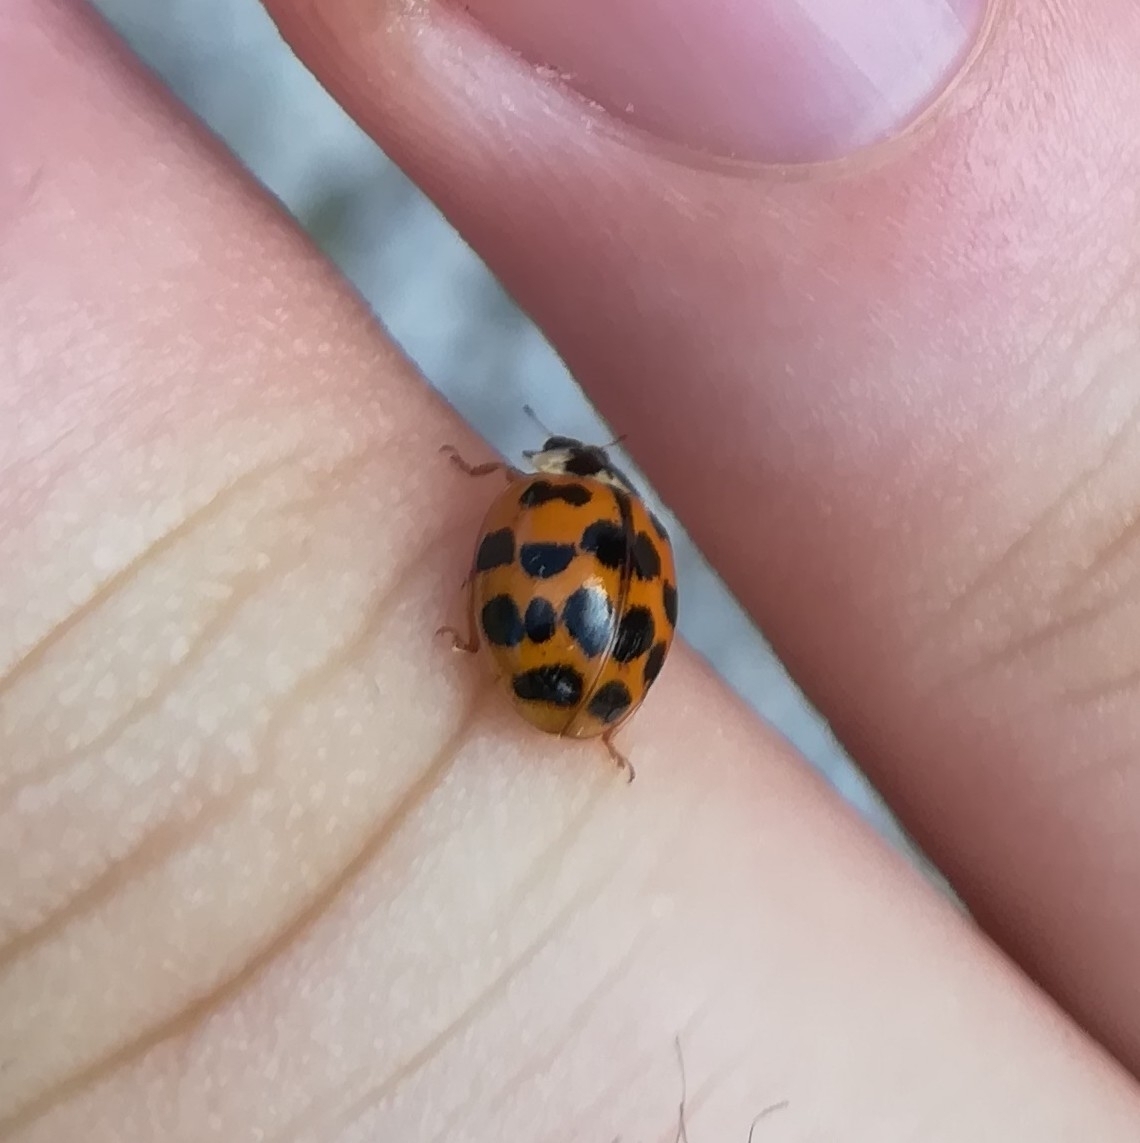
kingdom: Animalia
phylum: Arthropoda
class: Insecta
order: Coleoptera
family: Coccinellidae
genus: Harmonia
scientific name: Harmonia axyridis
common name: Harlequin ladybird
